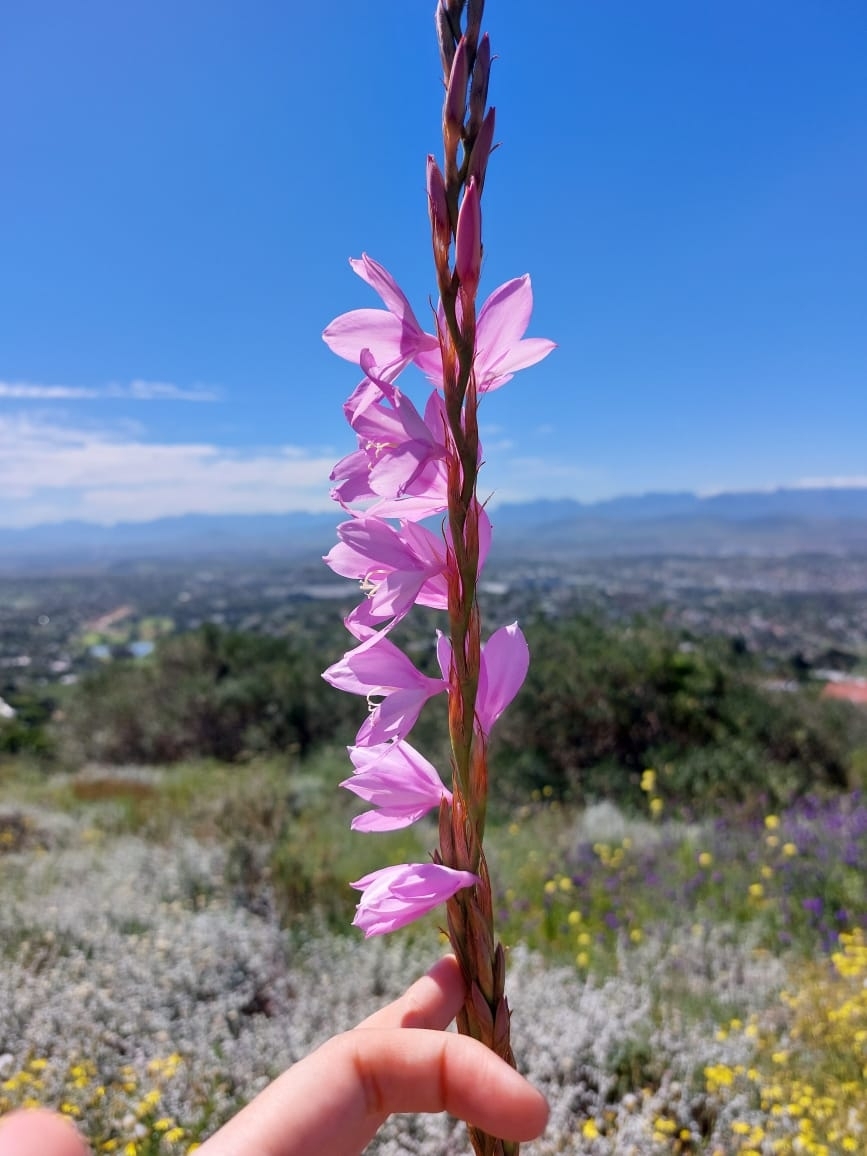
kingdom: Plantae
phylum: Tracheophyta
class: Liliopsida
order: Asparagales
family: Iridaceae
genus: Watsonia
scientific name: Watsonia marginata
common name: Fragrant bugle-lily
